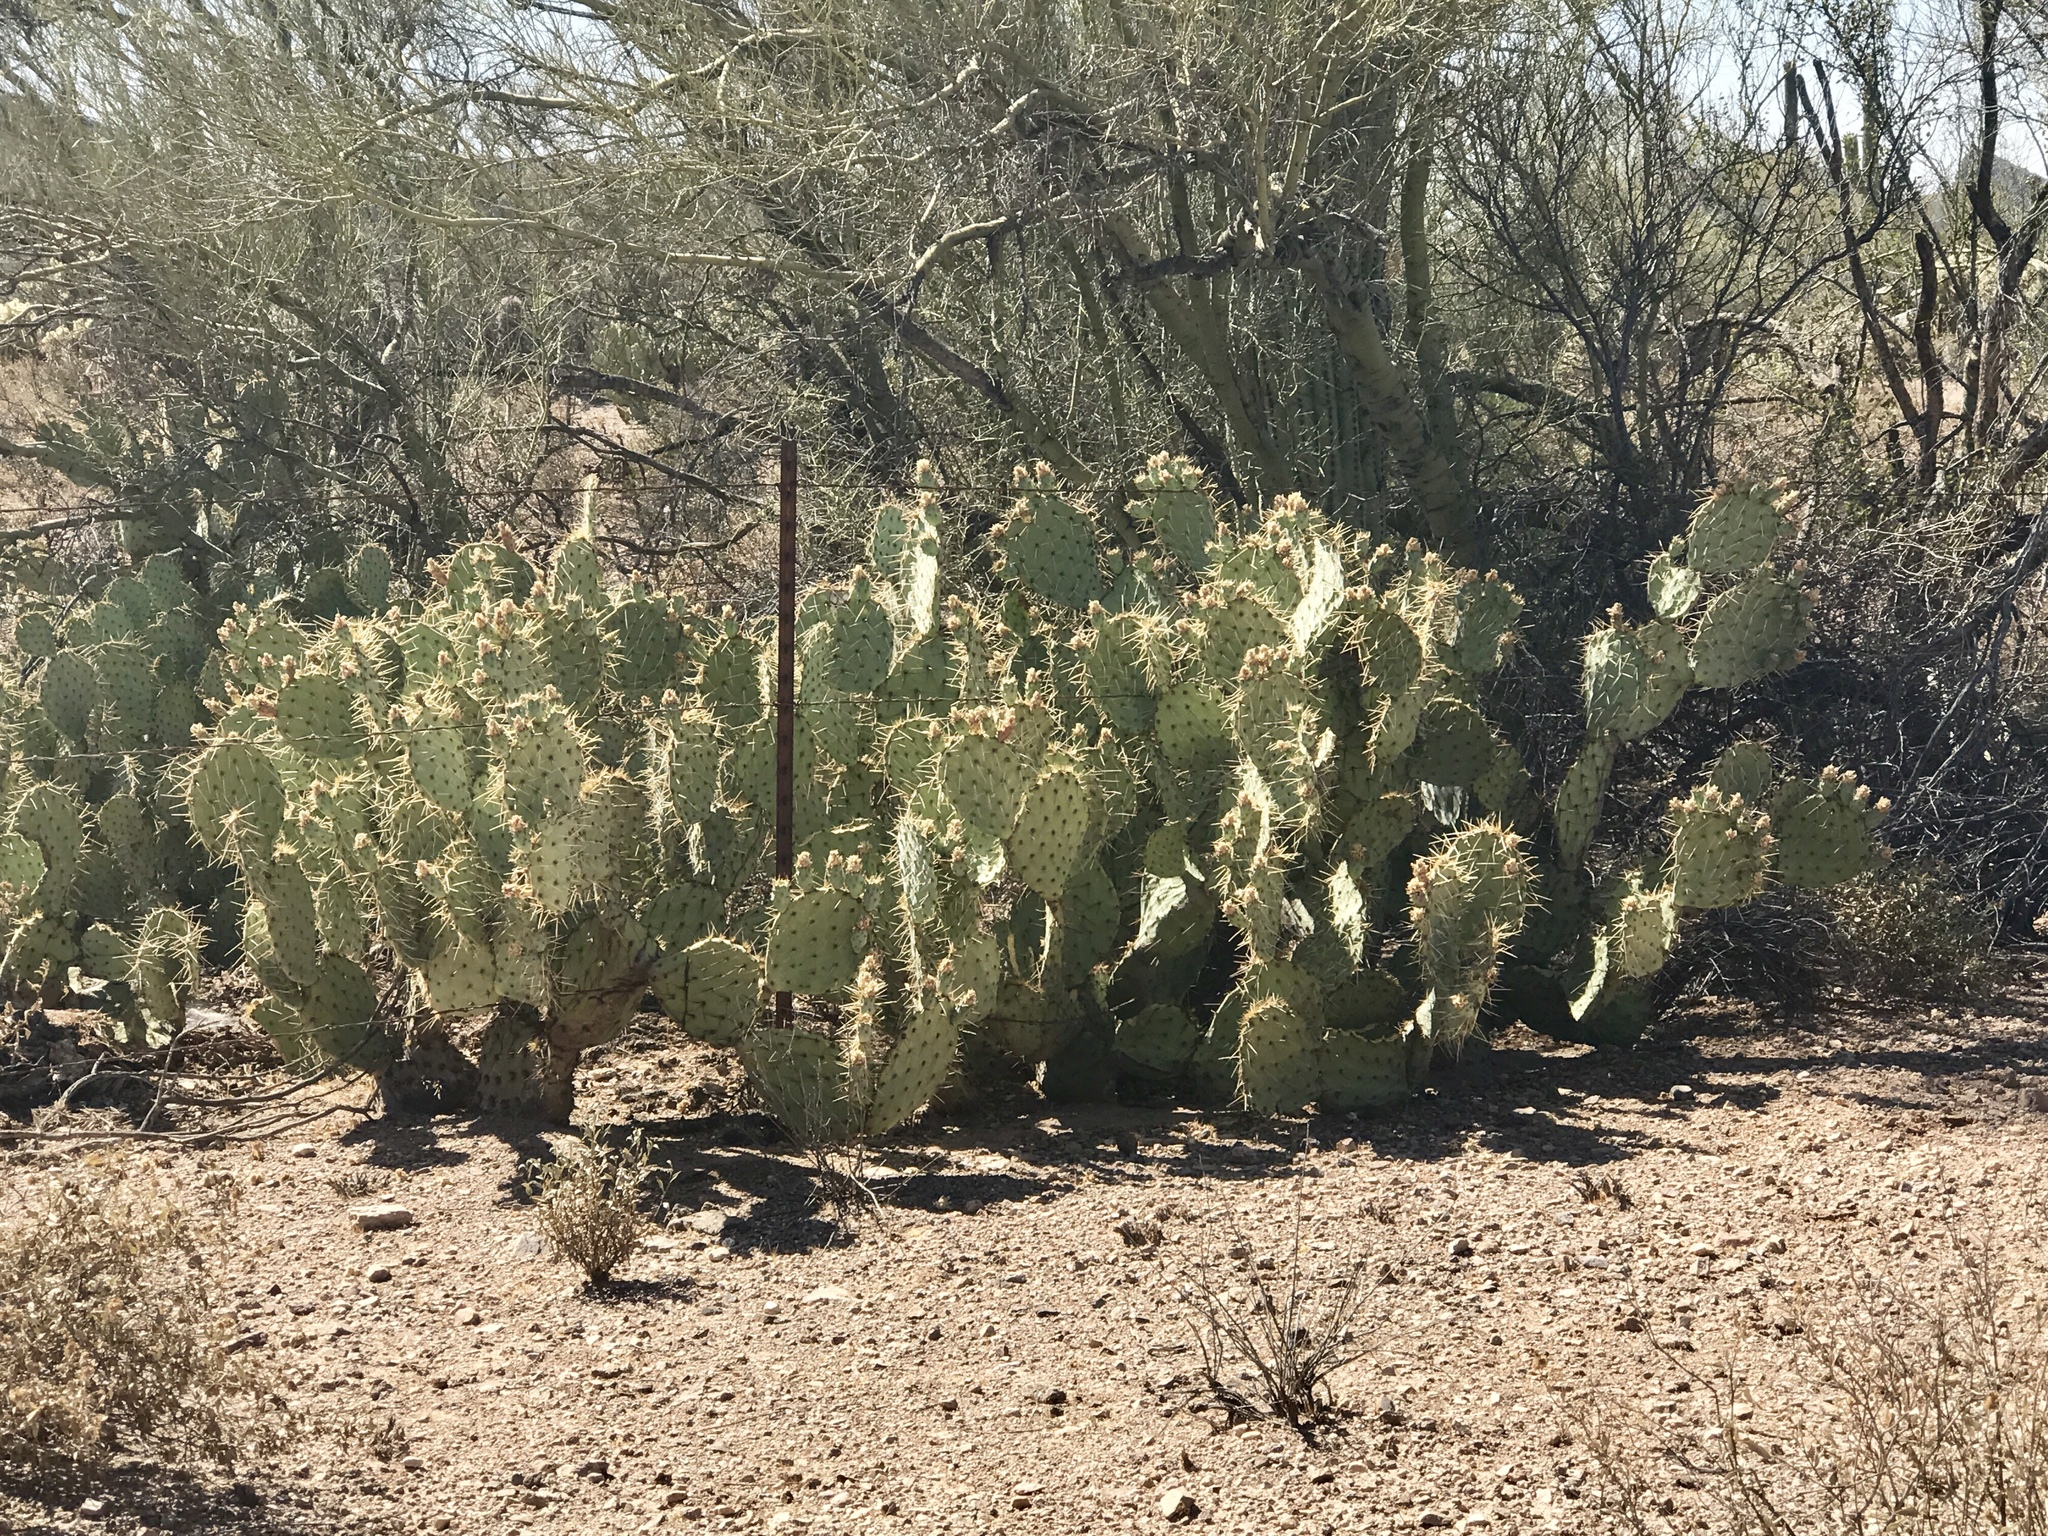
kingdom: Plantae
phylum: Tracheophyta
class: Magnoliopsida
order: Caryophyllales
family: Cactaceae
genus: Opuntia
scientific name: Opuntia engelmannii
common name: Cactus-apple
